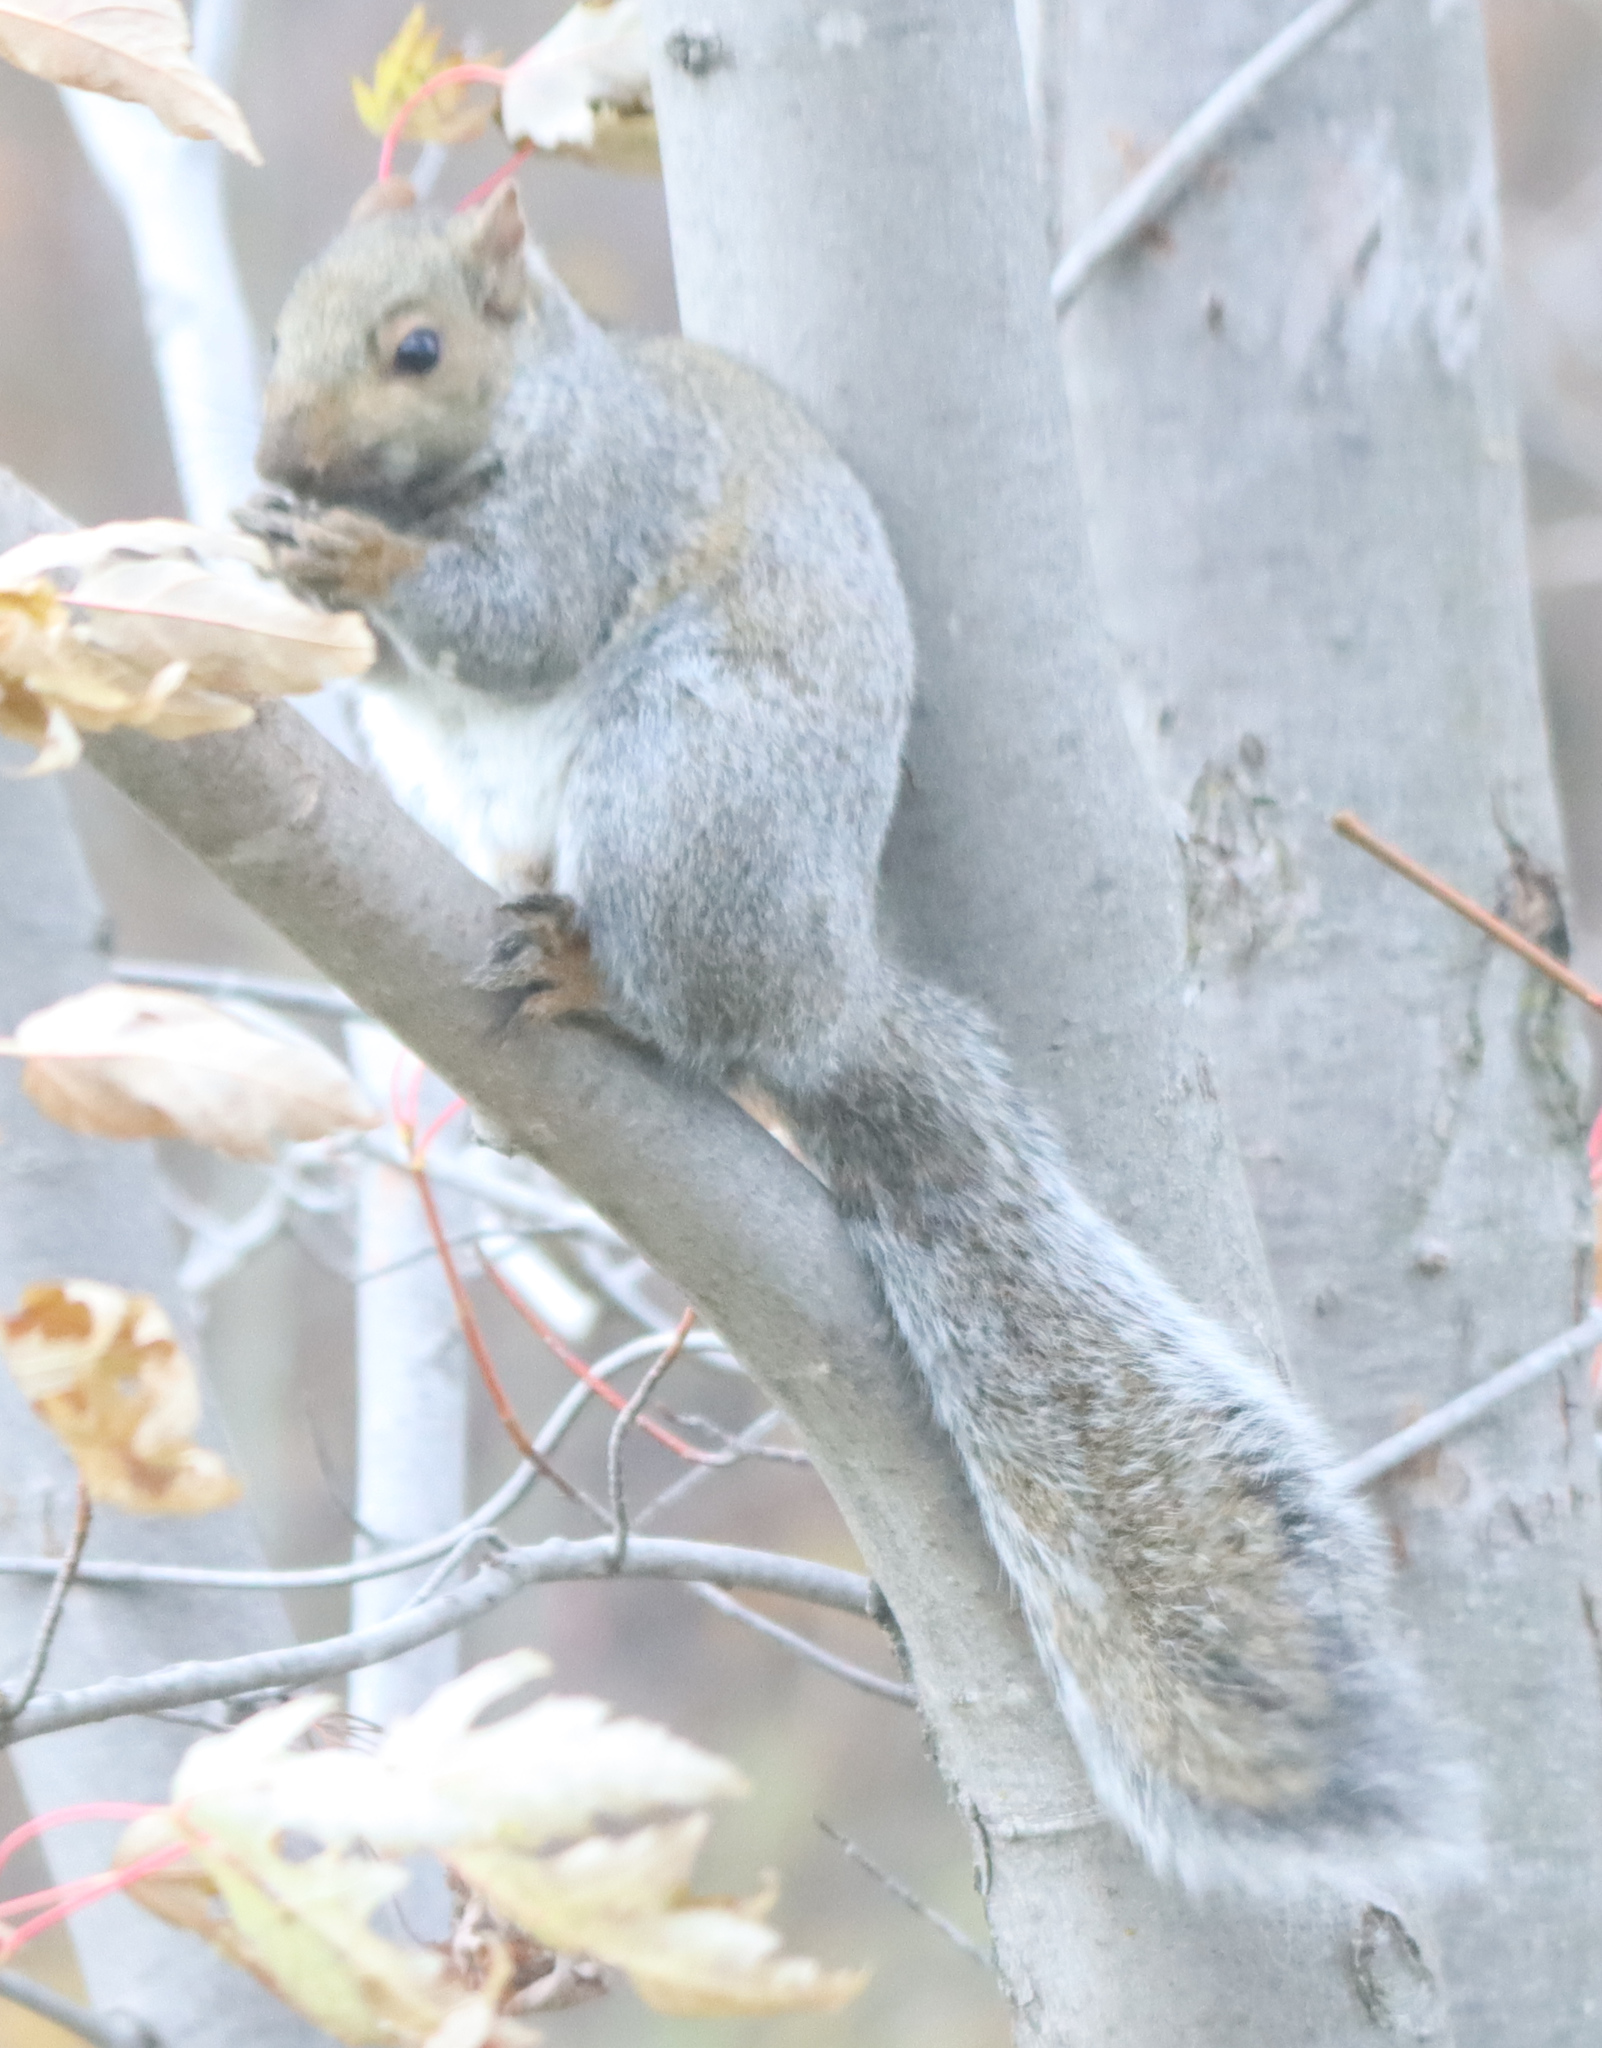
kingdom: Animalia
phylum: Chordata
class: Mammalia
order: Rodentia
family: Sciuridae
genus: Sciurus
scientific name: Sciurus carolinensis
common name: Eastern gray squirrel
